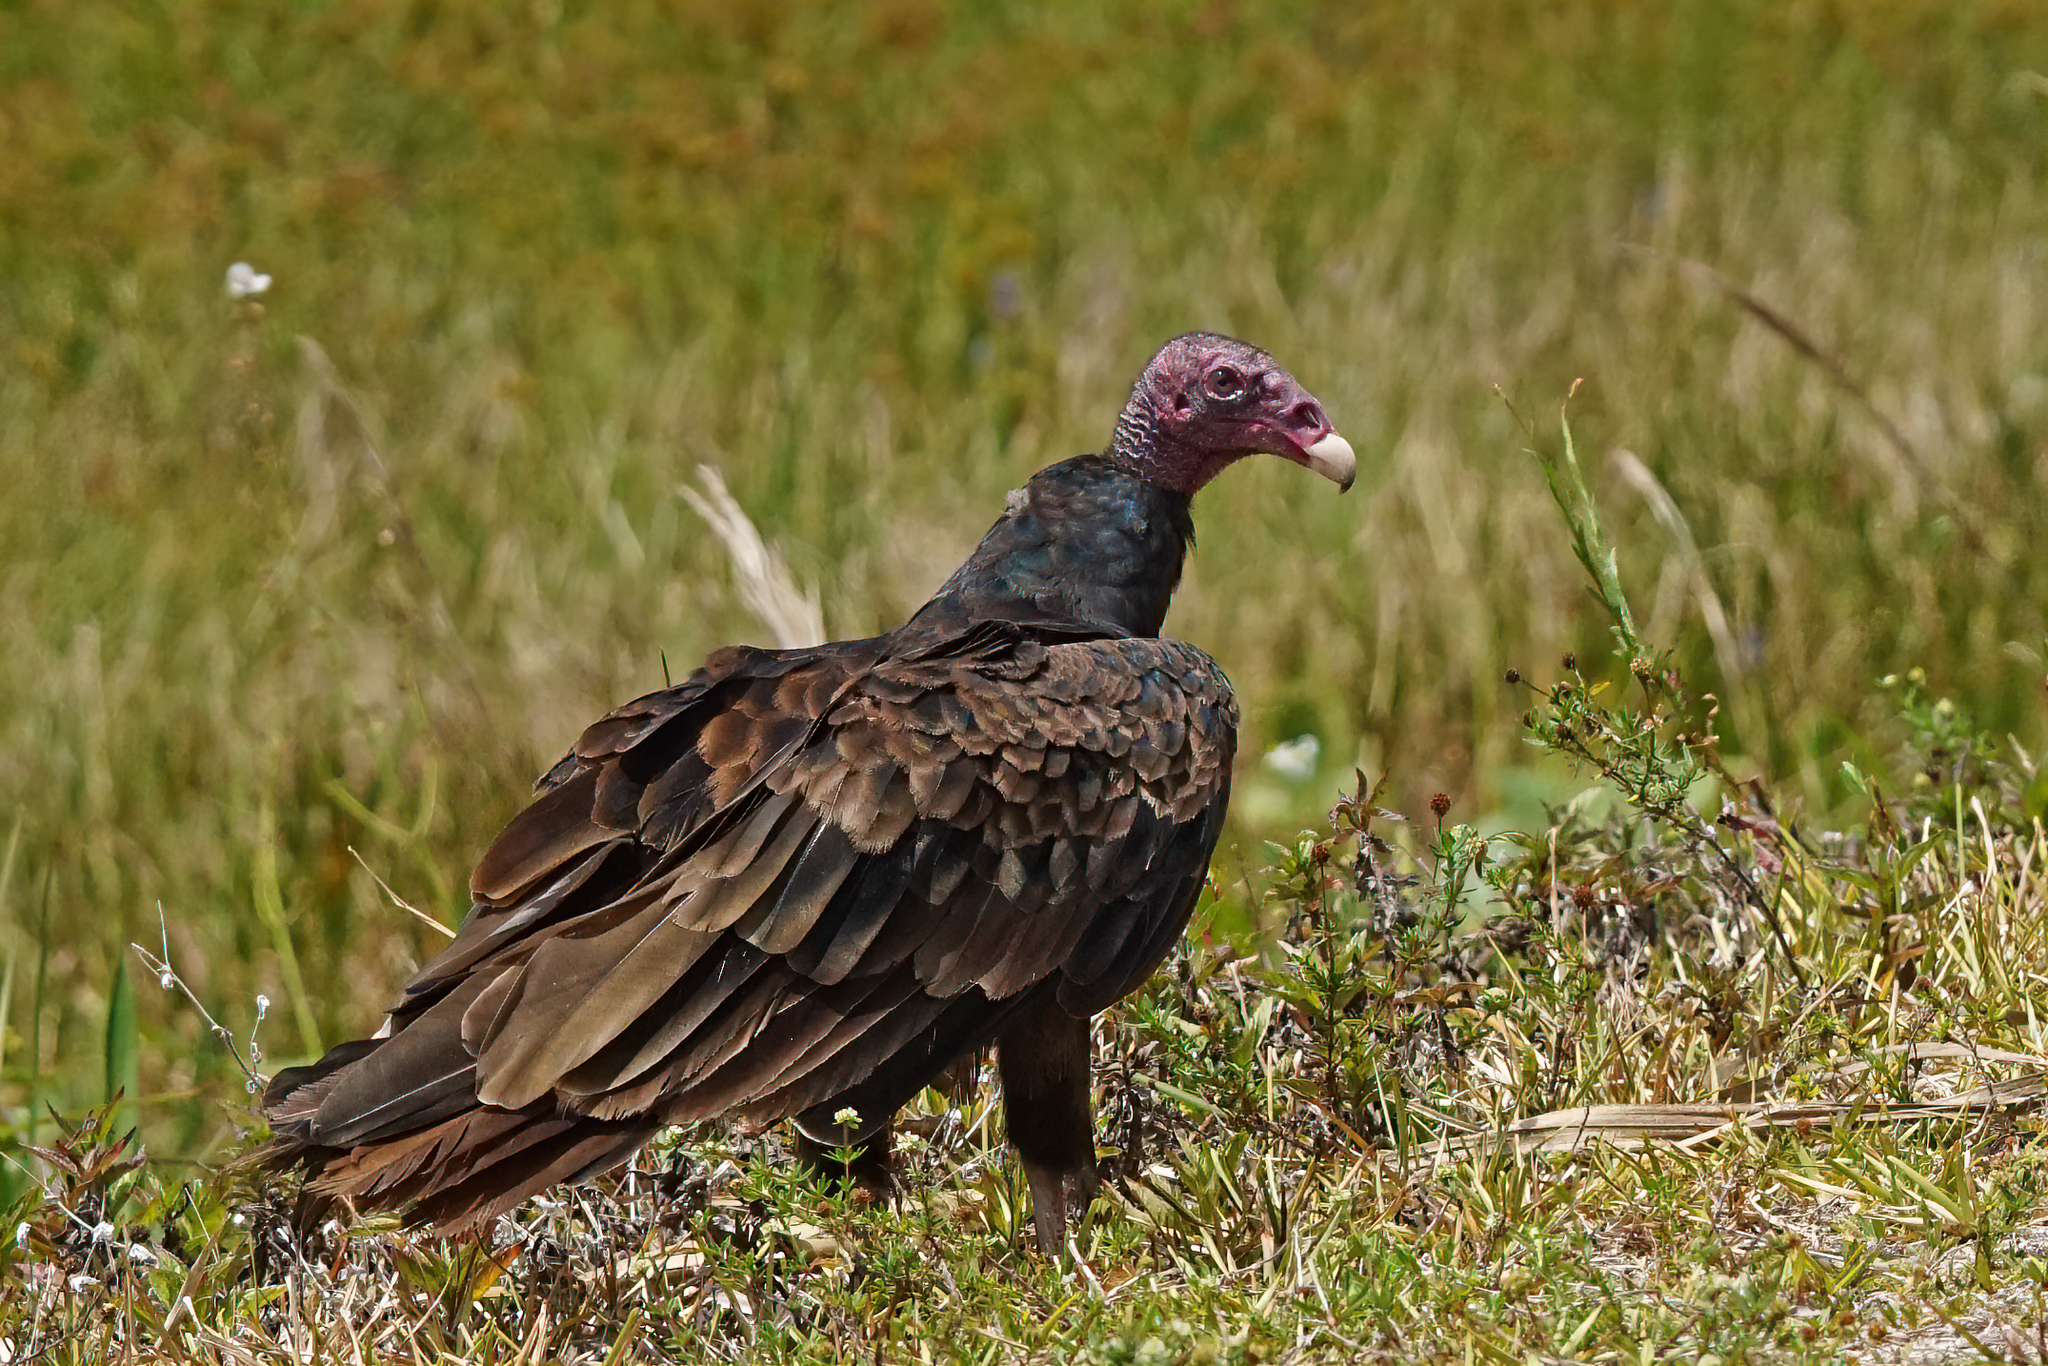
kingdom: Animalia
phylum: Chordata
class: Aves
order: Accipitriformes
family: Cathartidae
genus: Cathartes
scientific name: Cathartes aura
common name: Turkey vulture
